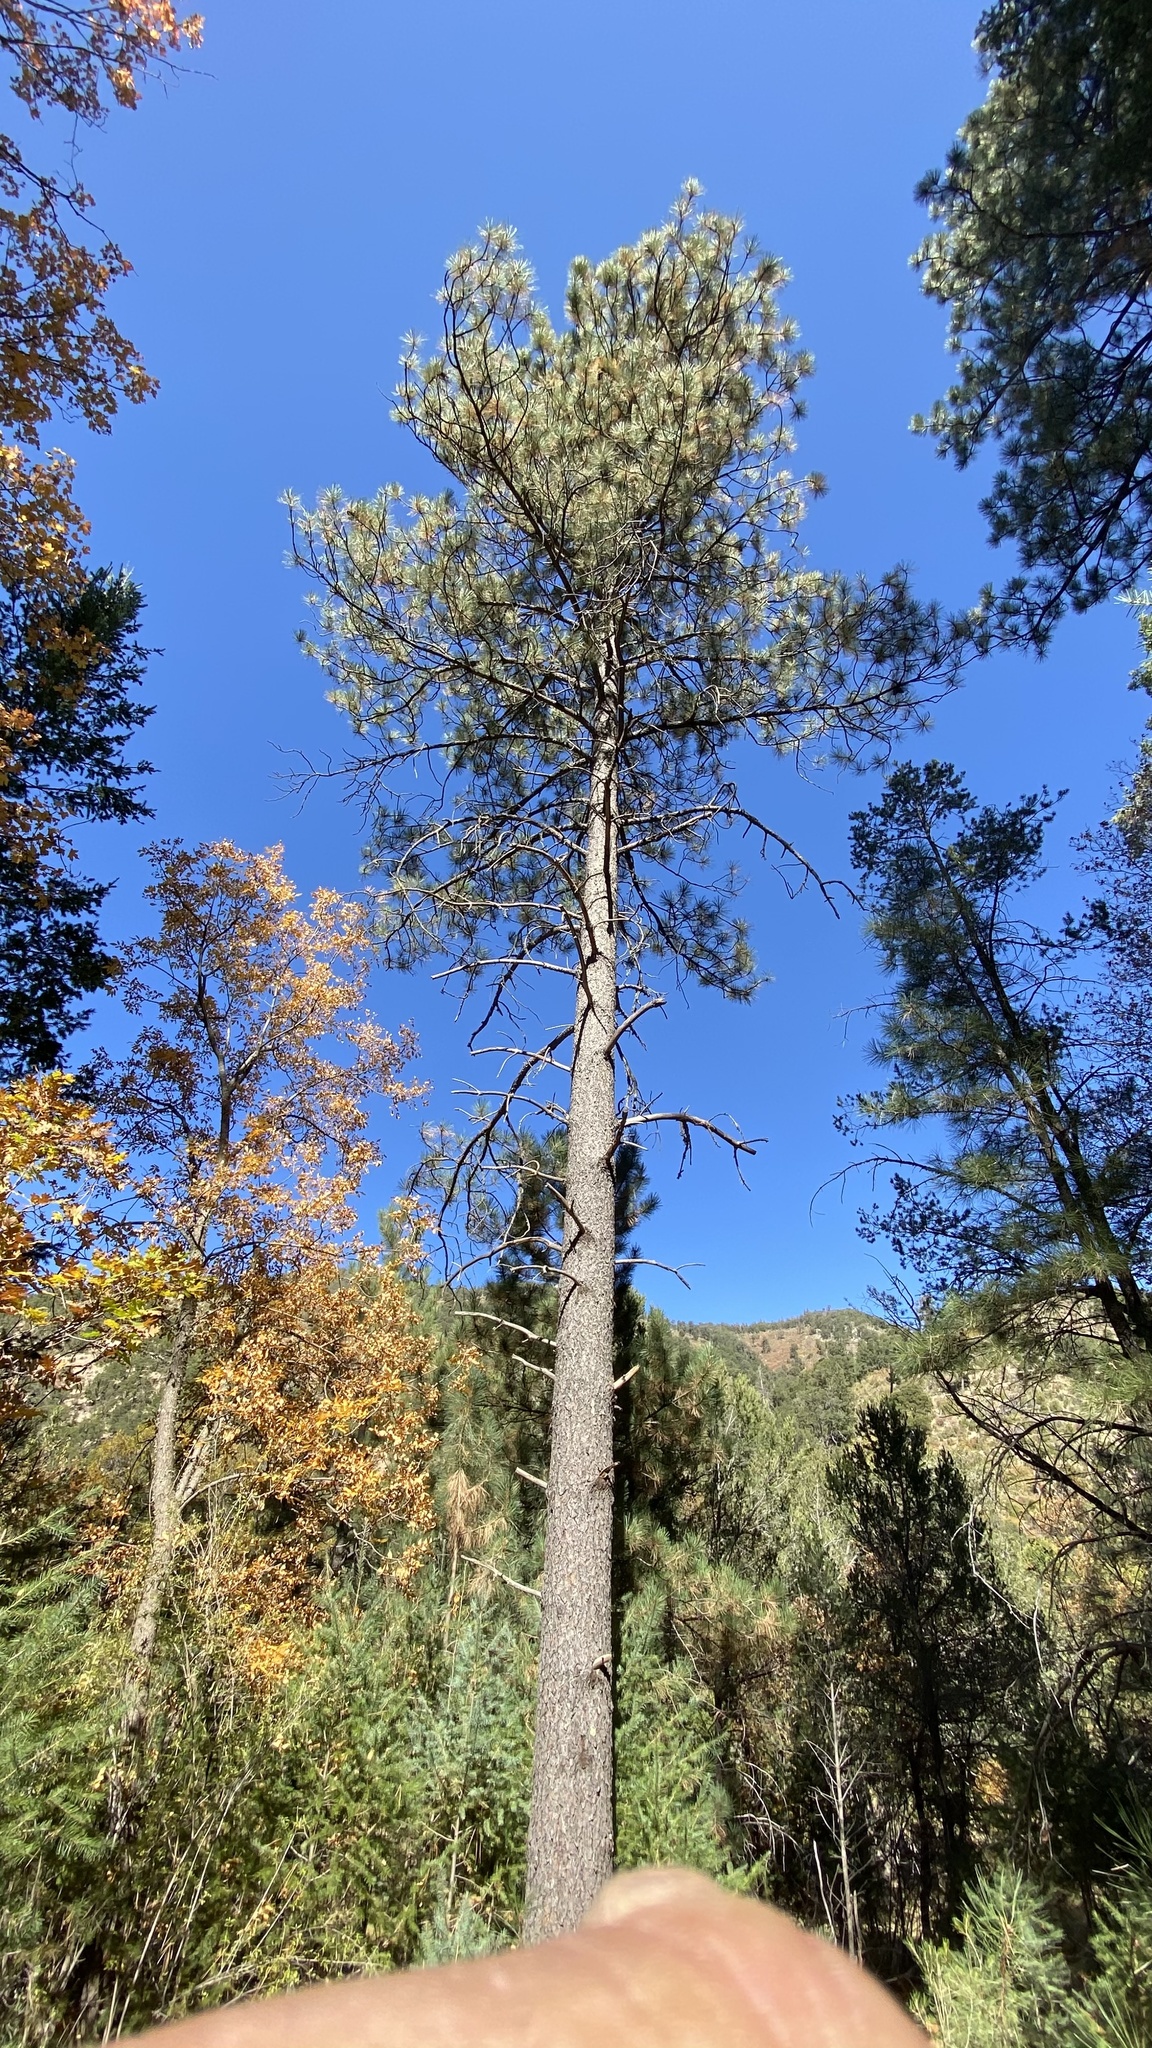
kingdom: Plantae
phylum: Tracheophyta
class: Pinopsida
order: Pinales
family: Pinaceae
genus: Pinus
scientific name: Pinus ponderosa
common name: Western yellow-pine
